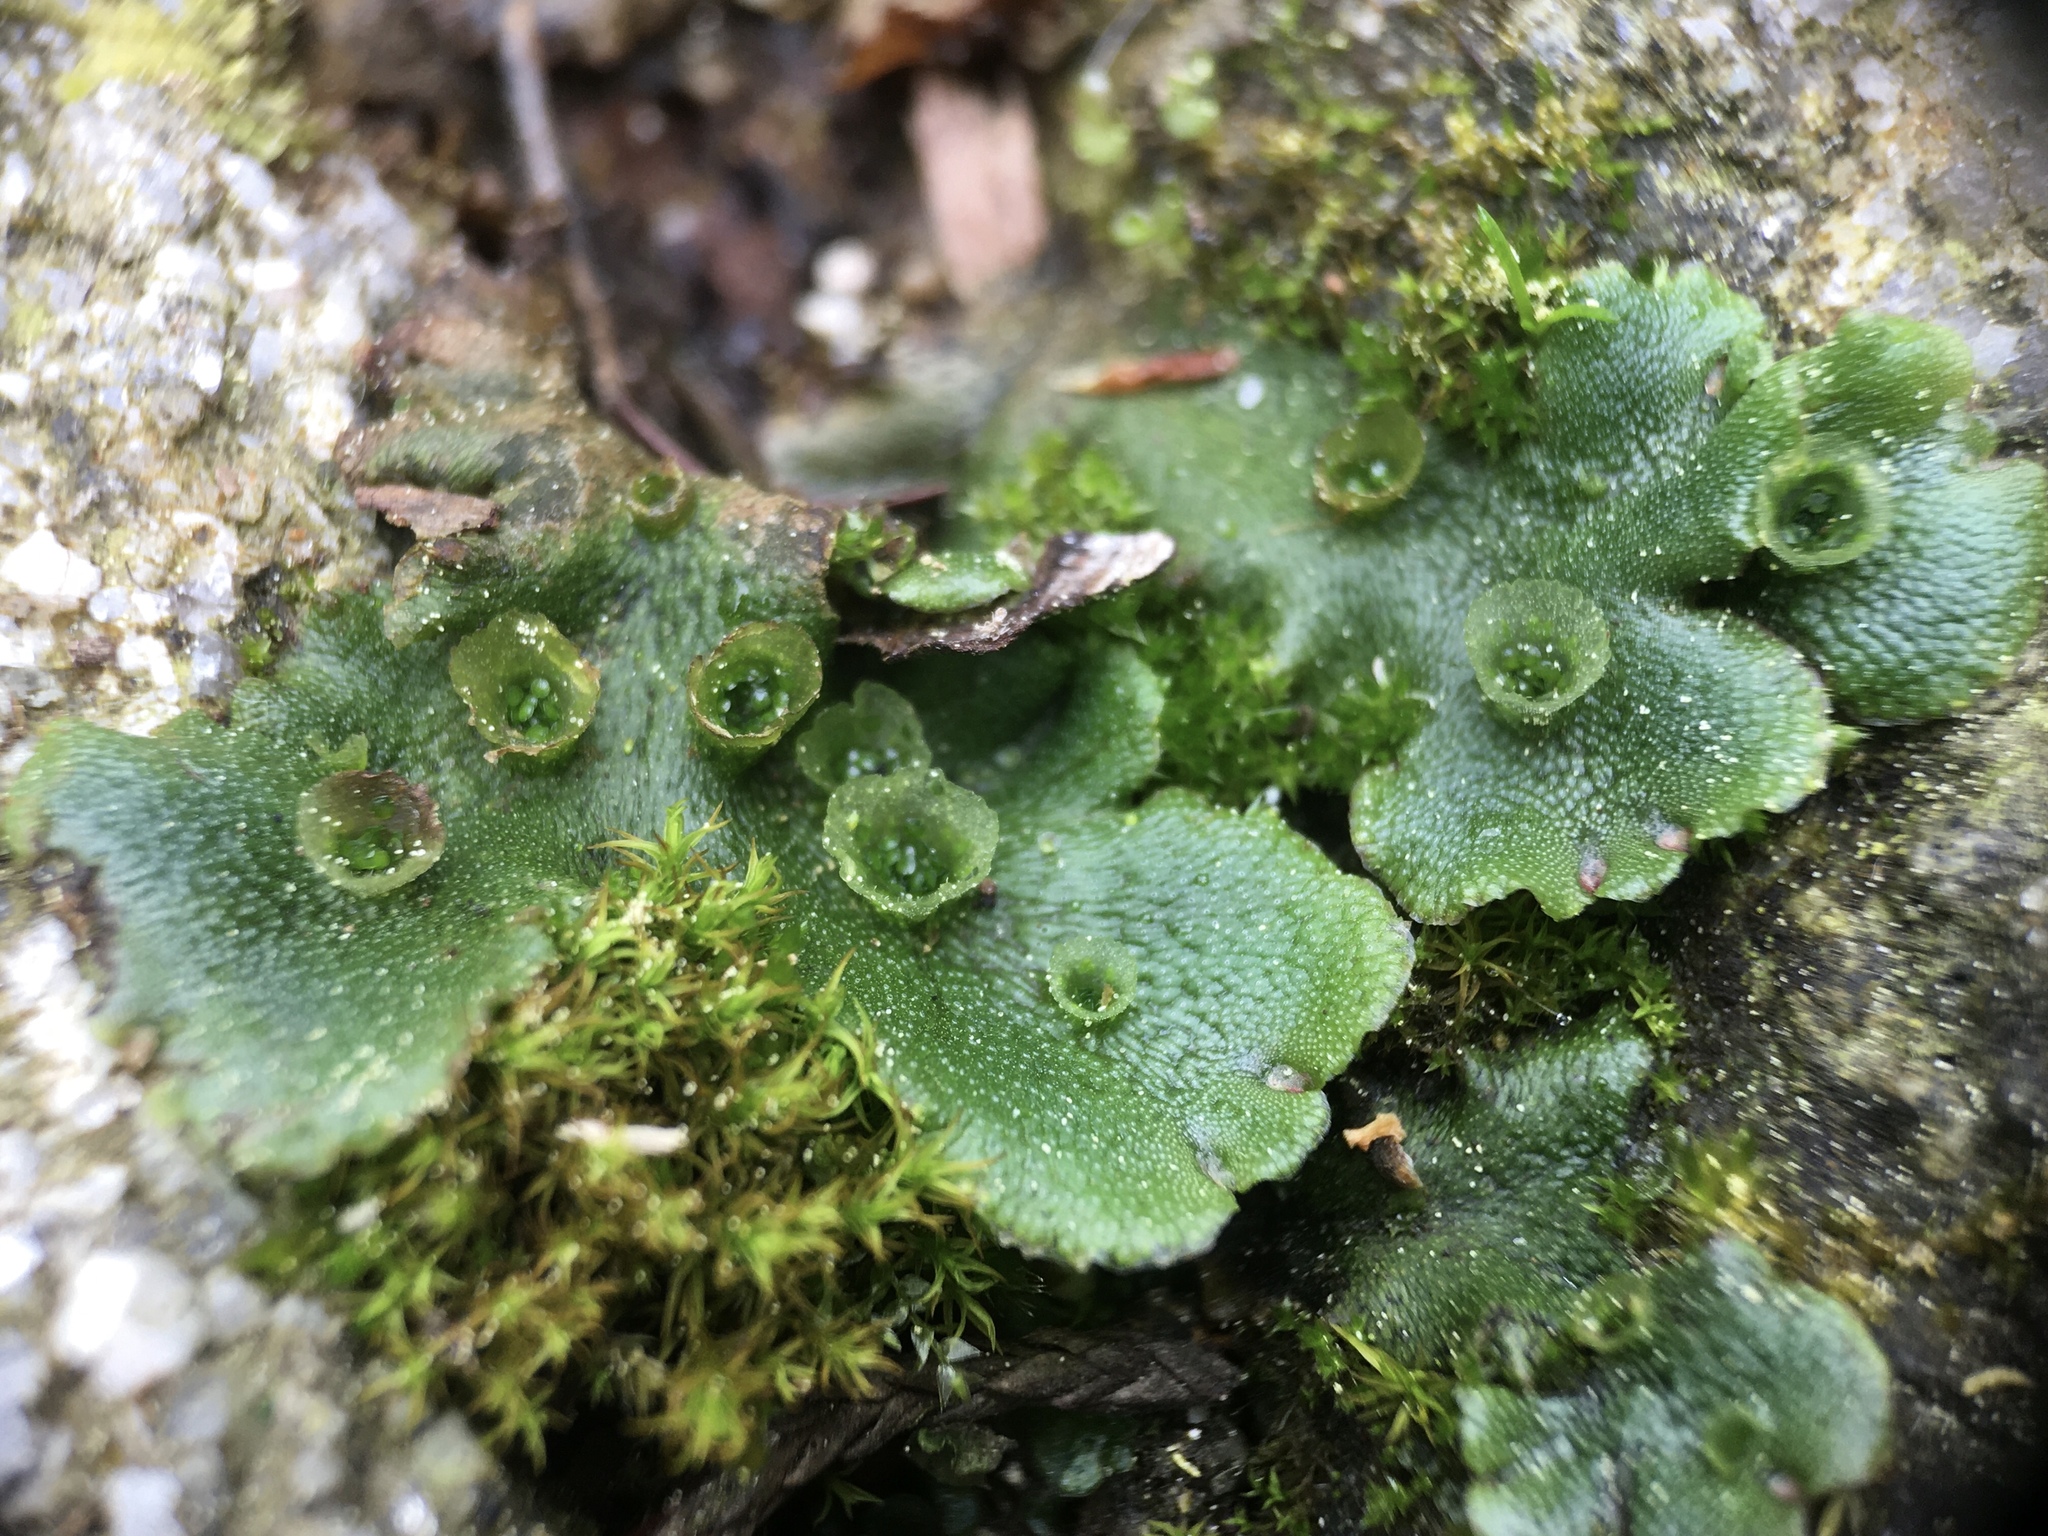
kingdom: Plantae
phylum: Marchantiophyta
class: Marchantiopsida
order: Marchantiales
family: Marchantiaceae
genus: Marchantia
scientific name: Marchantia polymorpha
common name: Common liverwort
